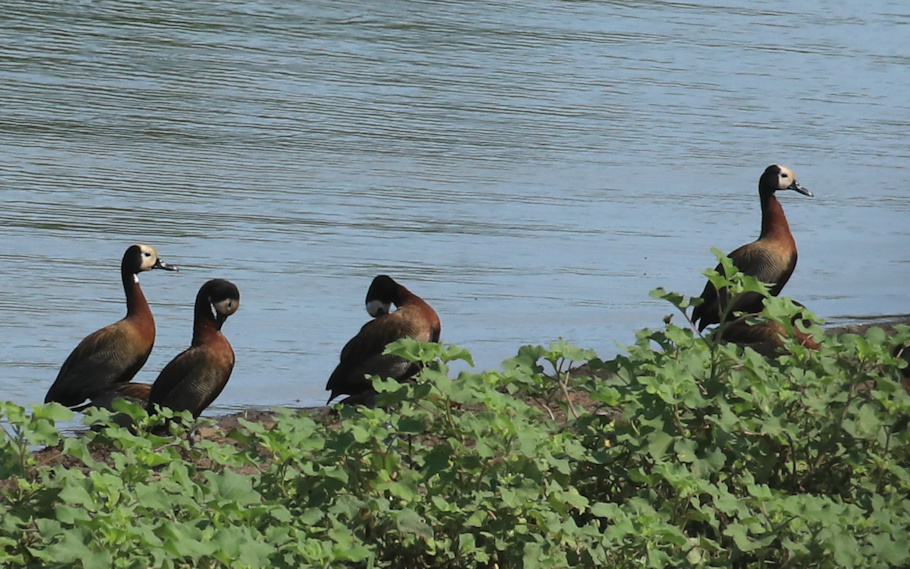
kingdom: Animalia
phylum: Chordata
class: Aves
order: Anseriformes
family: Anatidae
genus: Dendrocygna
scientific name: Dendrocygna viduata
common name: White-faced whistling duck
